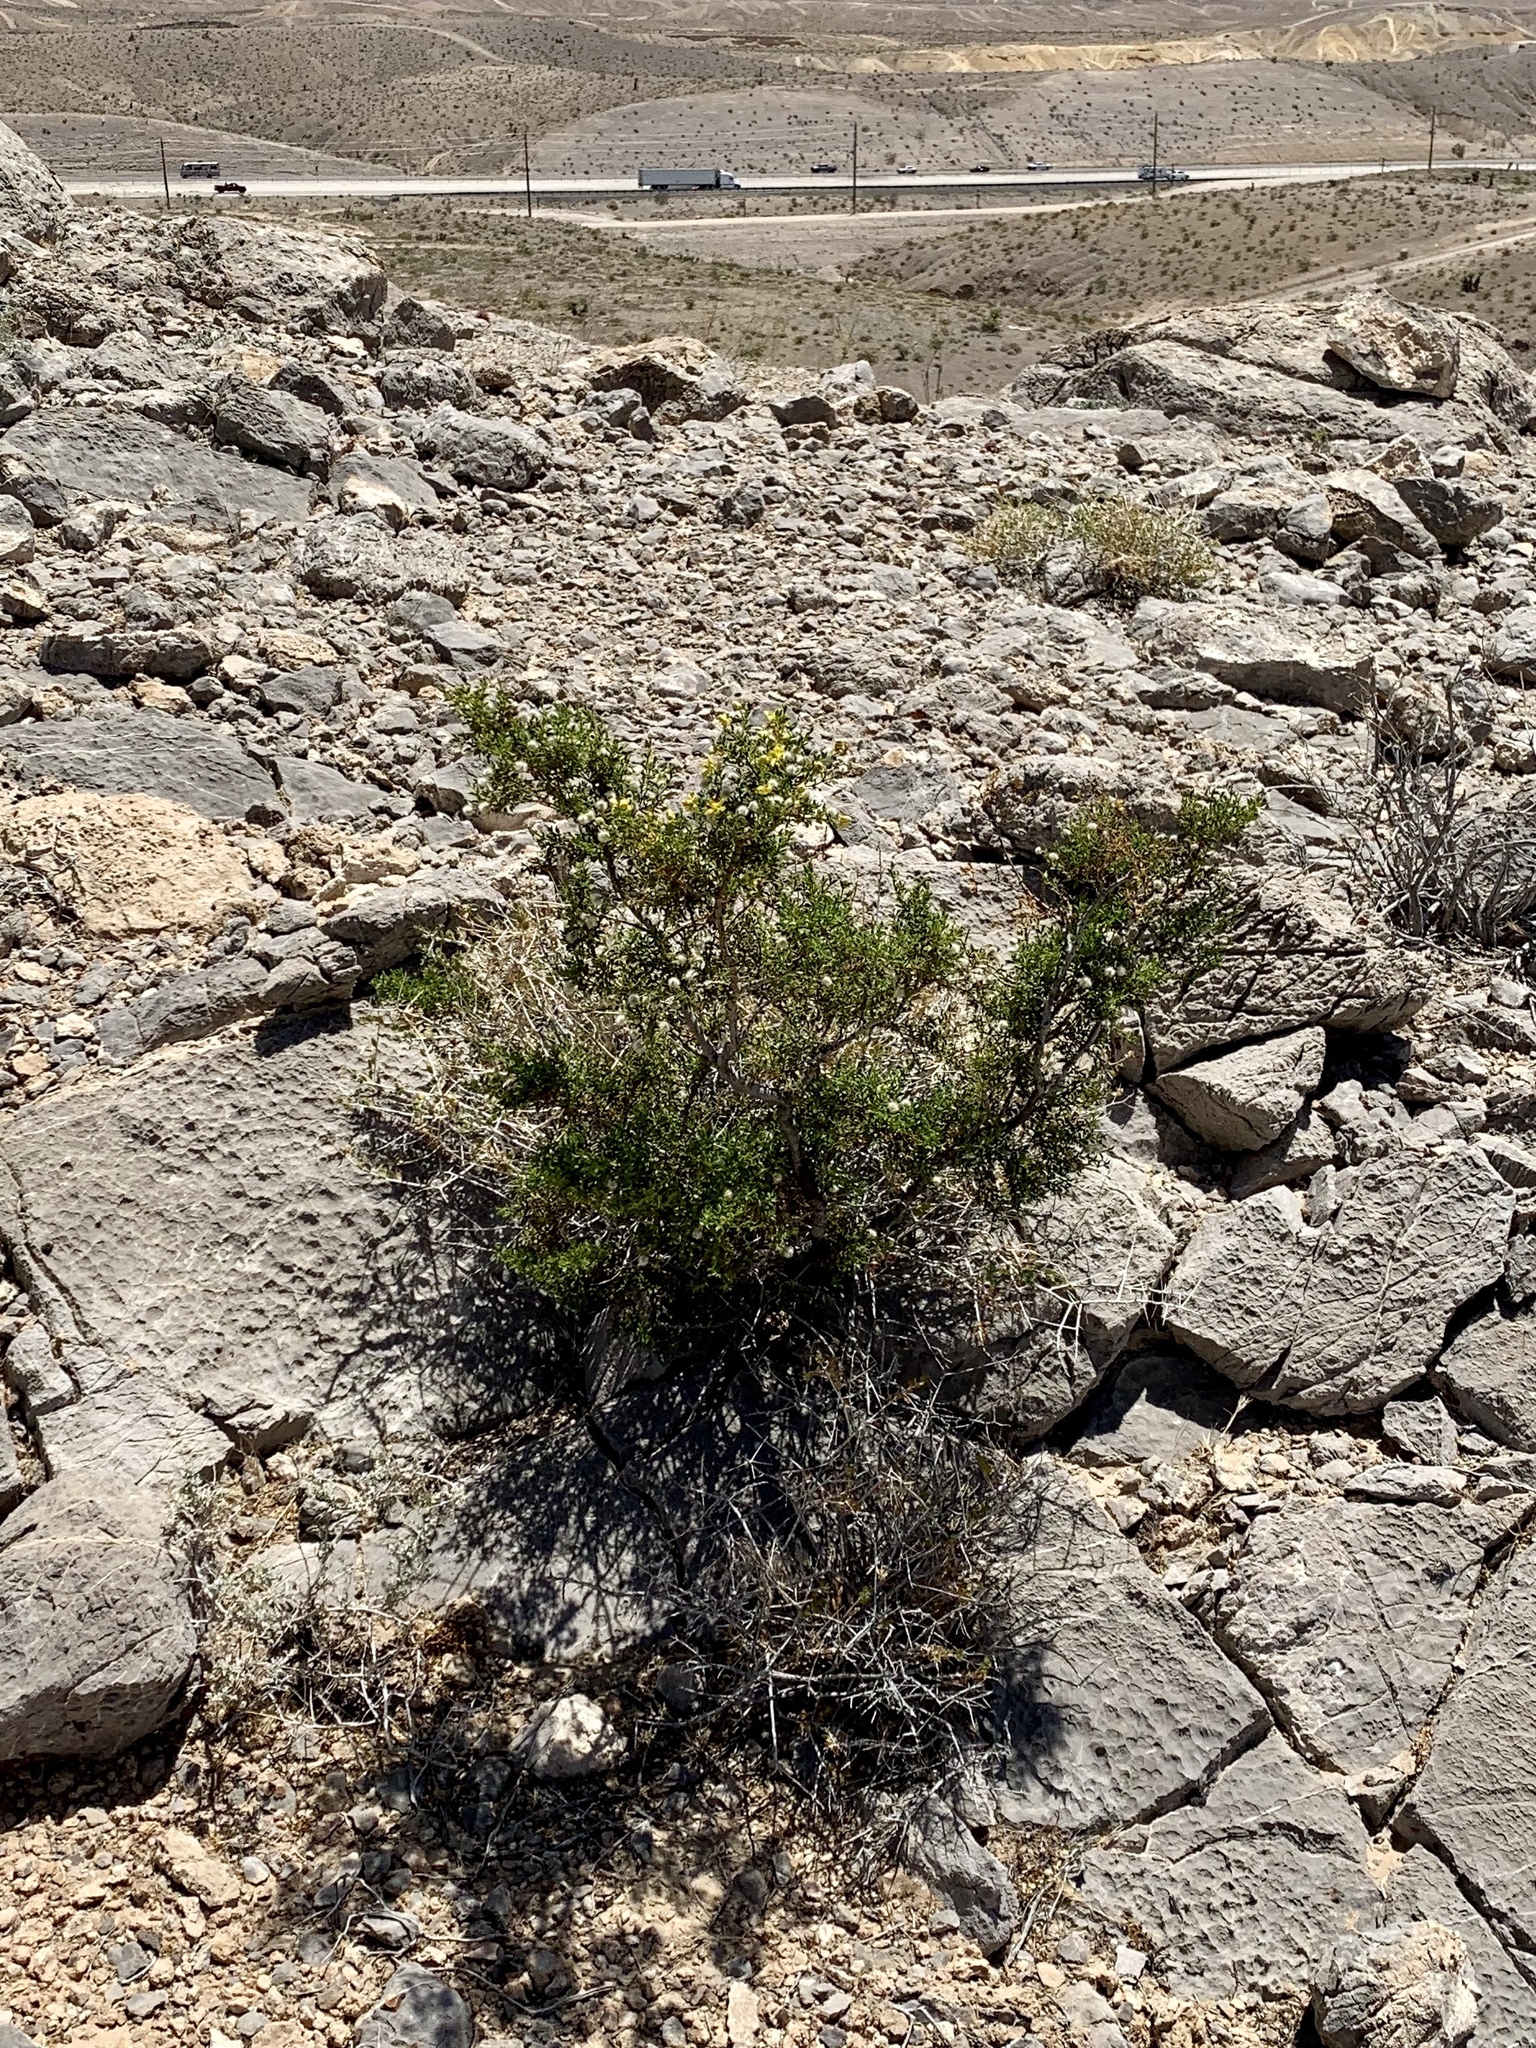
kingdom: Plantae
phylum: Tracheophyta
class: Magnoliopsida
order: Zygophyllales
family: Zygophyllaceae
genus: Larrea
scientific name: Larrea tridentata
